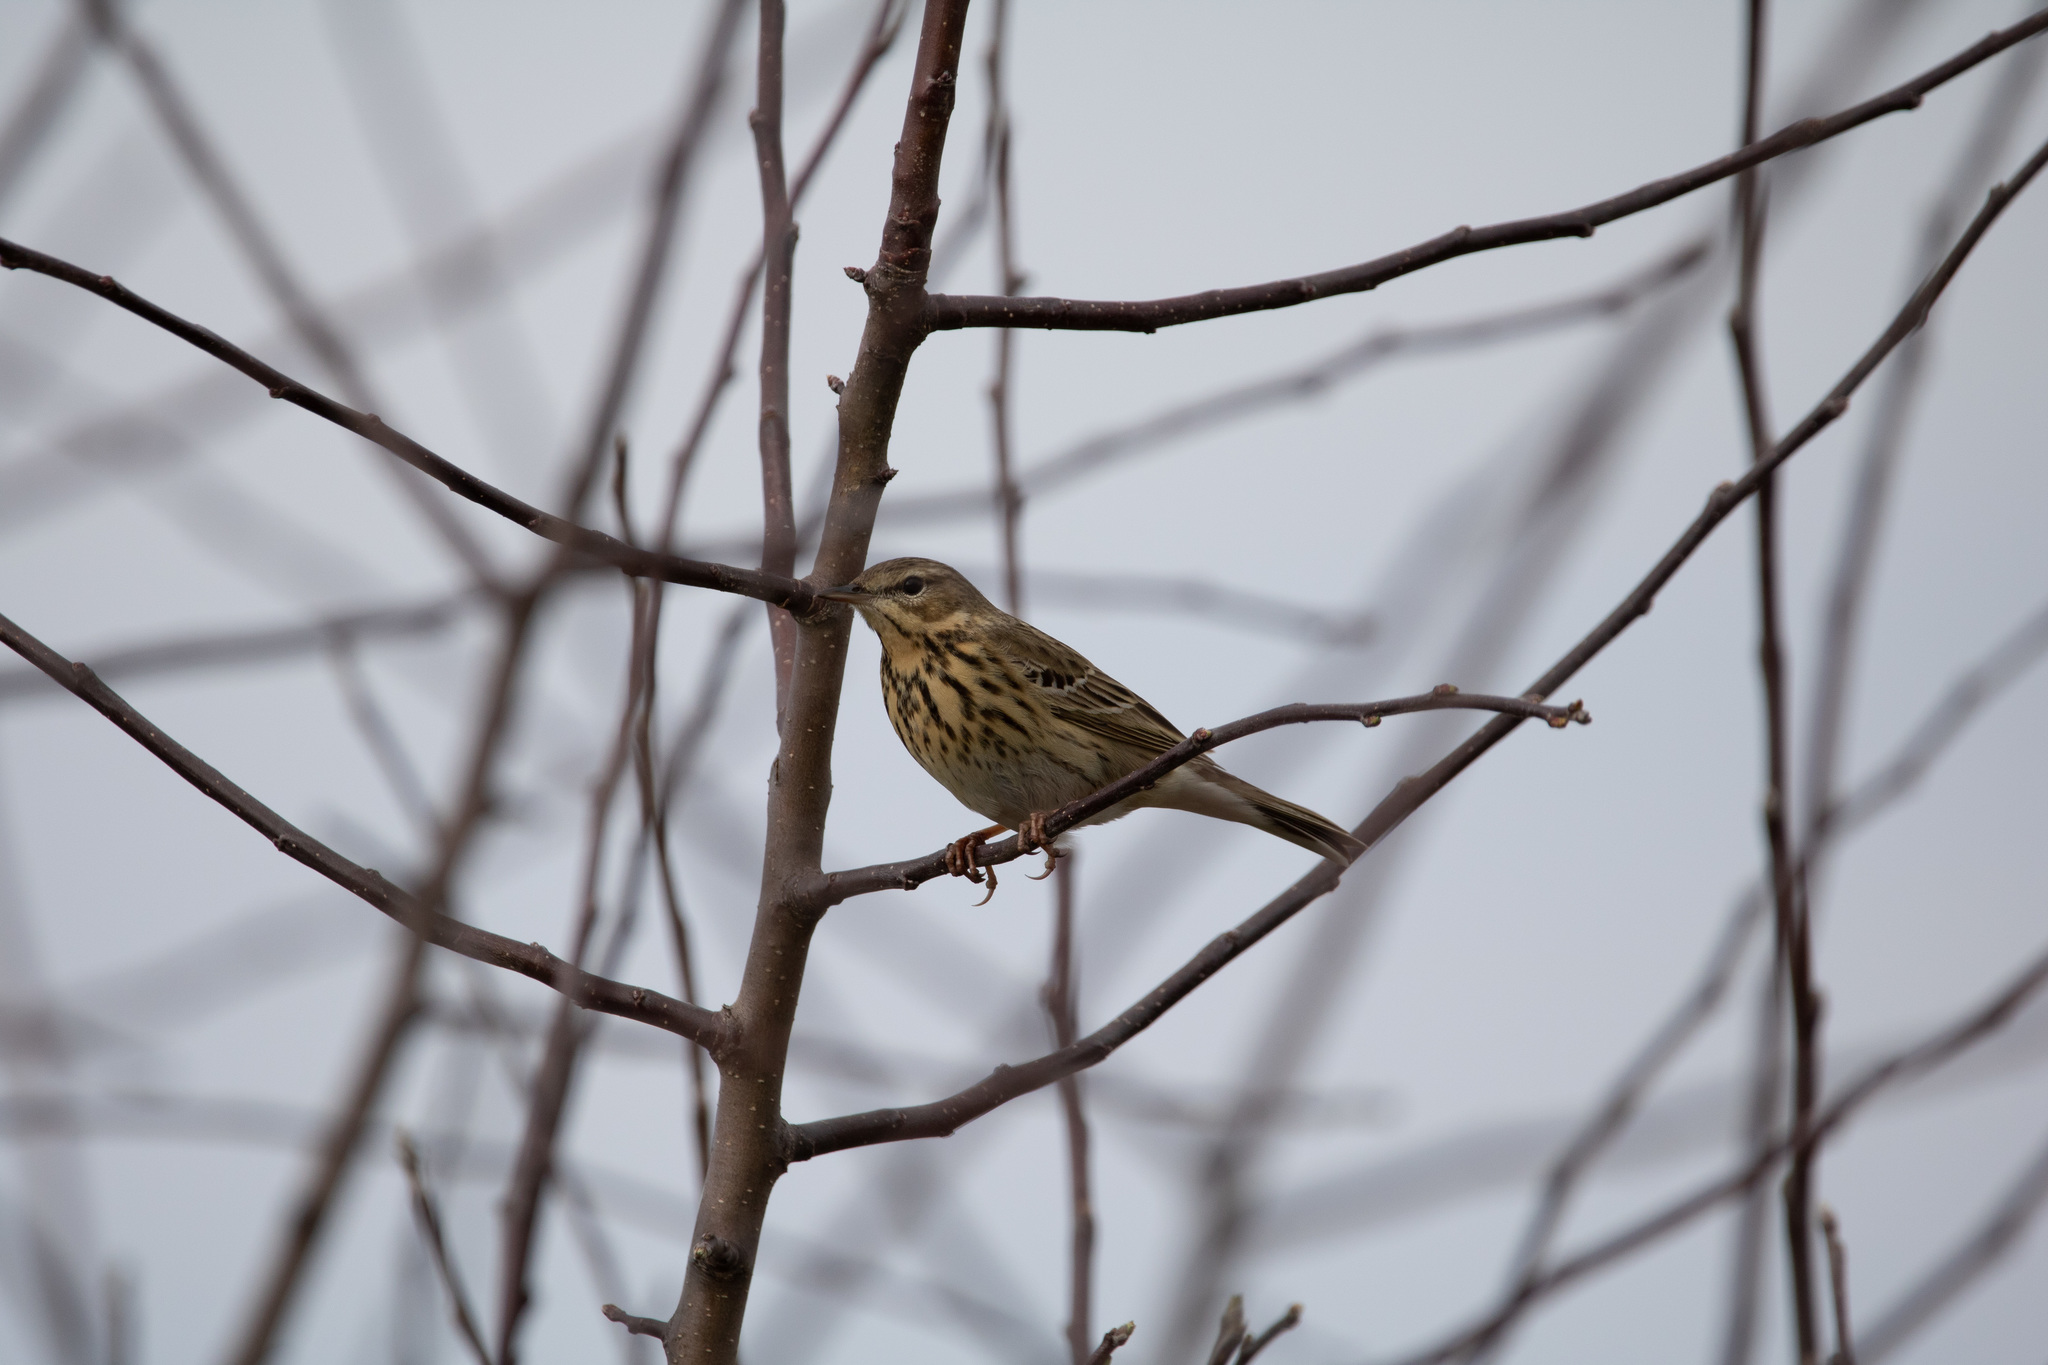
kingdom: Animalia
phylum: Chordata
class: Aves
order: Passeriformes
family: Motacillidae
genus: Anthus
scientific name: Anthus trivialis
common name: Tree pipit
